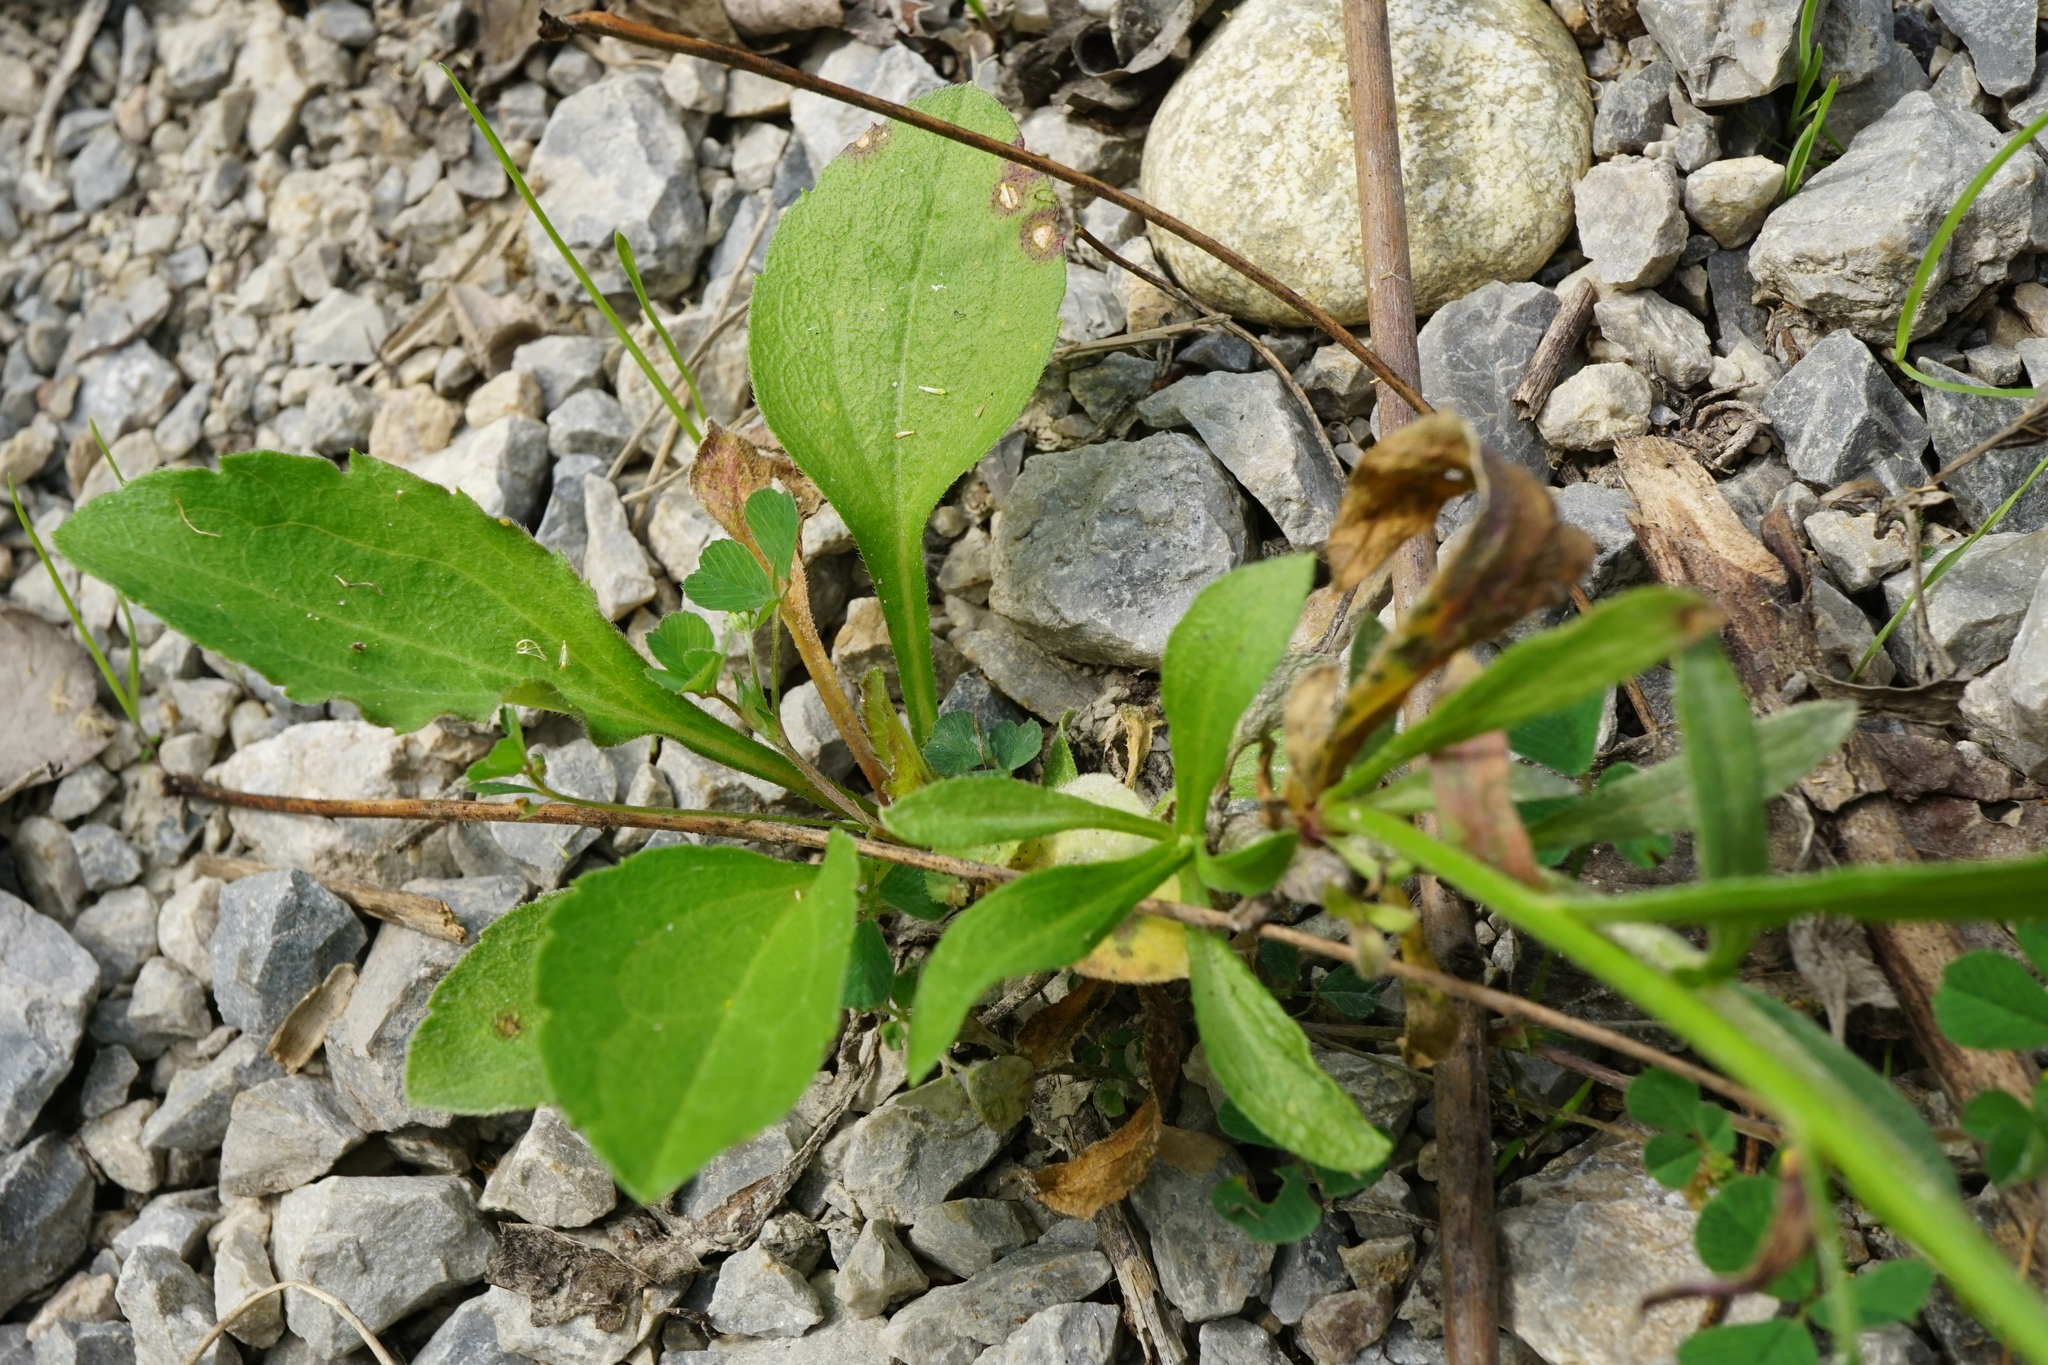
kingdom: Plantae
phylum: Tracheophyta
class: Magnoliopsida
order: Asterales
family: Asteraceae
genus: Erigeron
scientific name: Erigeron strigosus
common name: Common eastern fleabane
